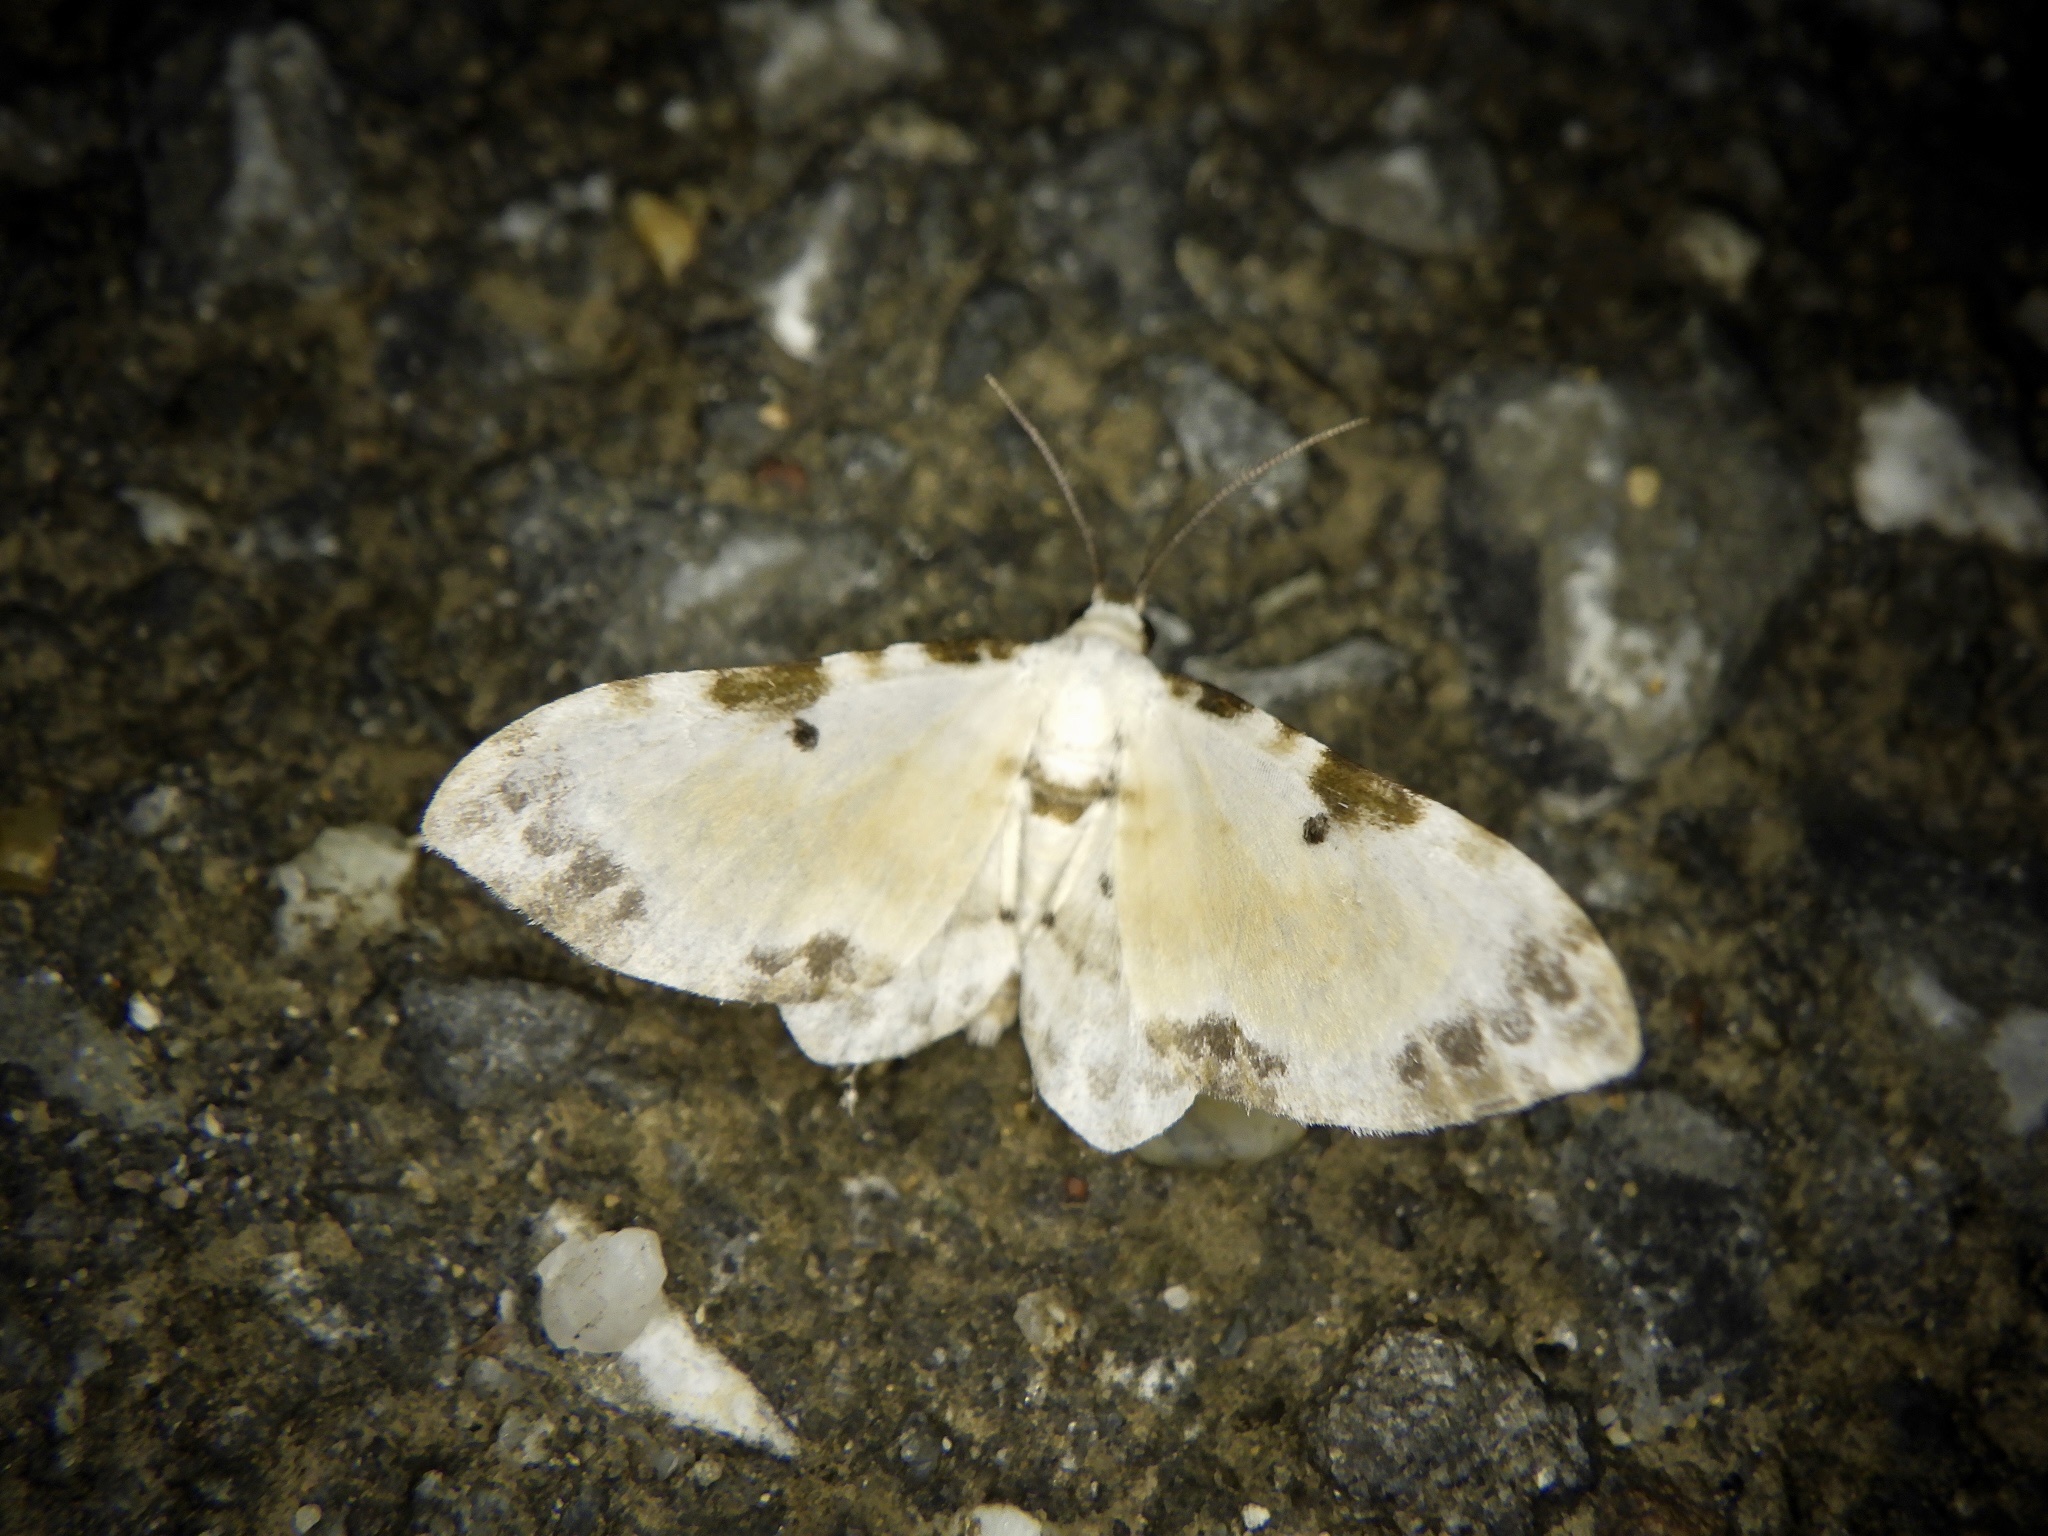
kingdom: Animalia
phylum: Arthropoda
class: Insecta
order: Lepidoptera
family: Geometridae
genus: Tyloptera
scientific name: Tyloptera bella
